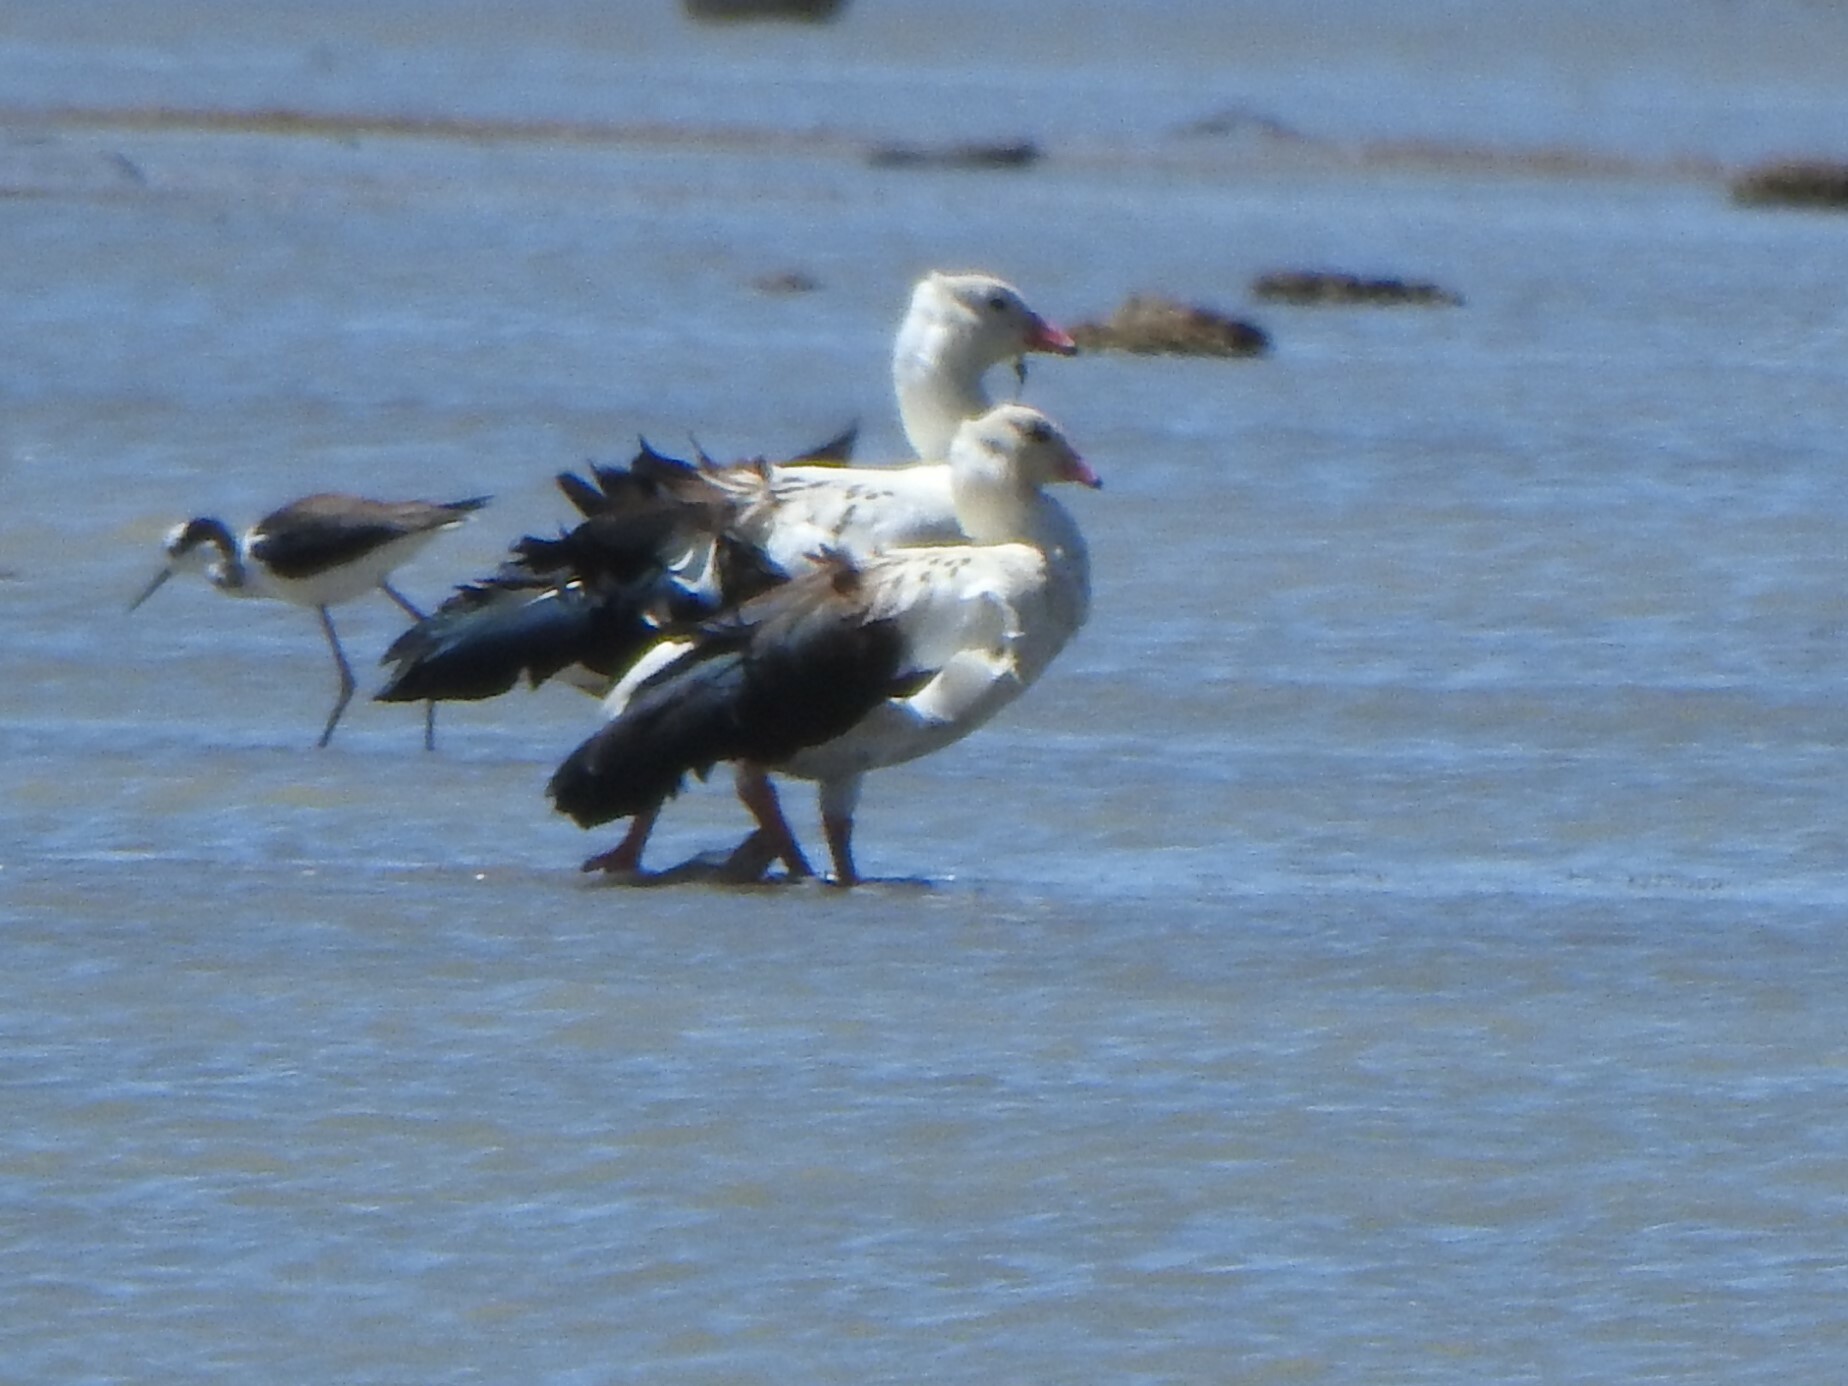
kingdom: Animalia
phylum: Chordata
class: Aves
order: Anseriformes
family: Anatidae
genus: Chloephaga
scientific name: Chloephaga melanoptera
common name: Andean goose
